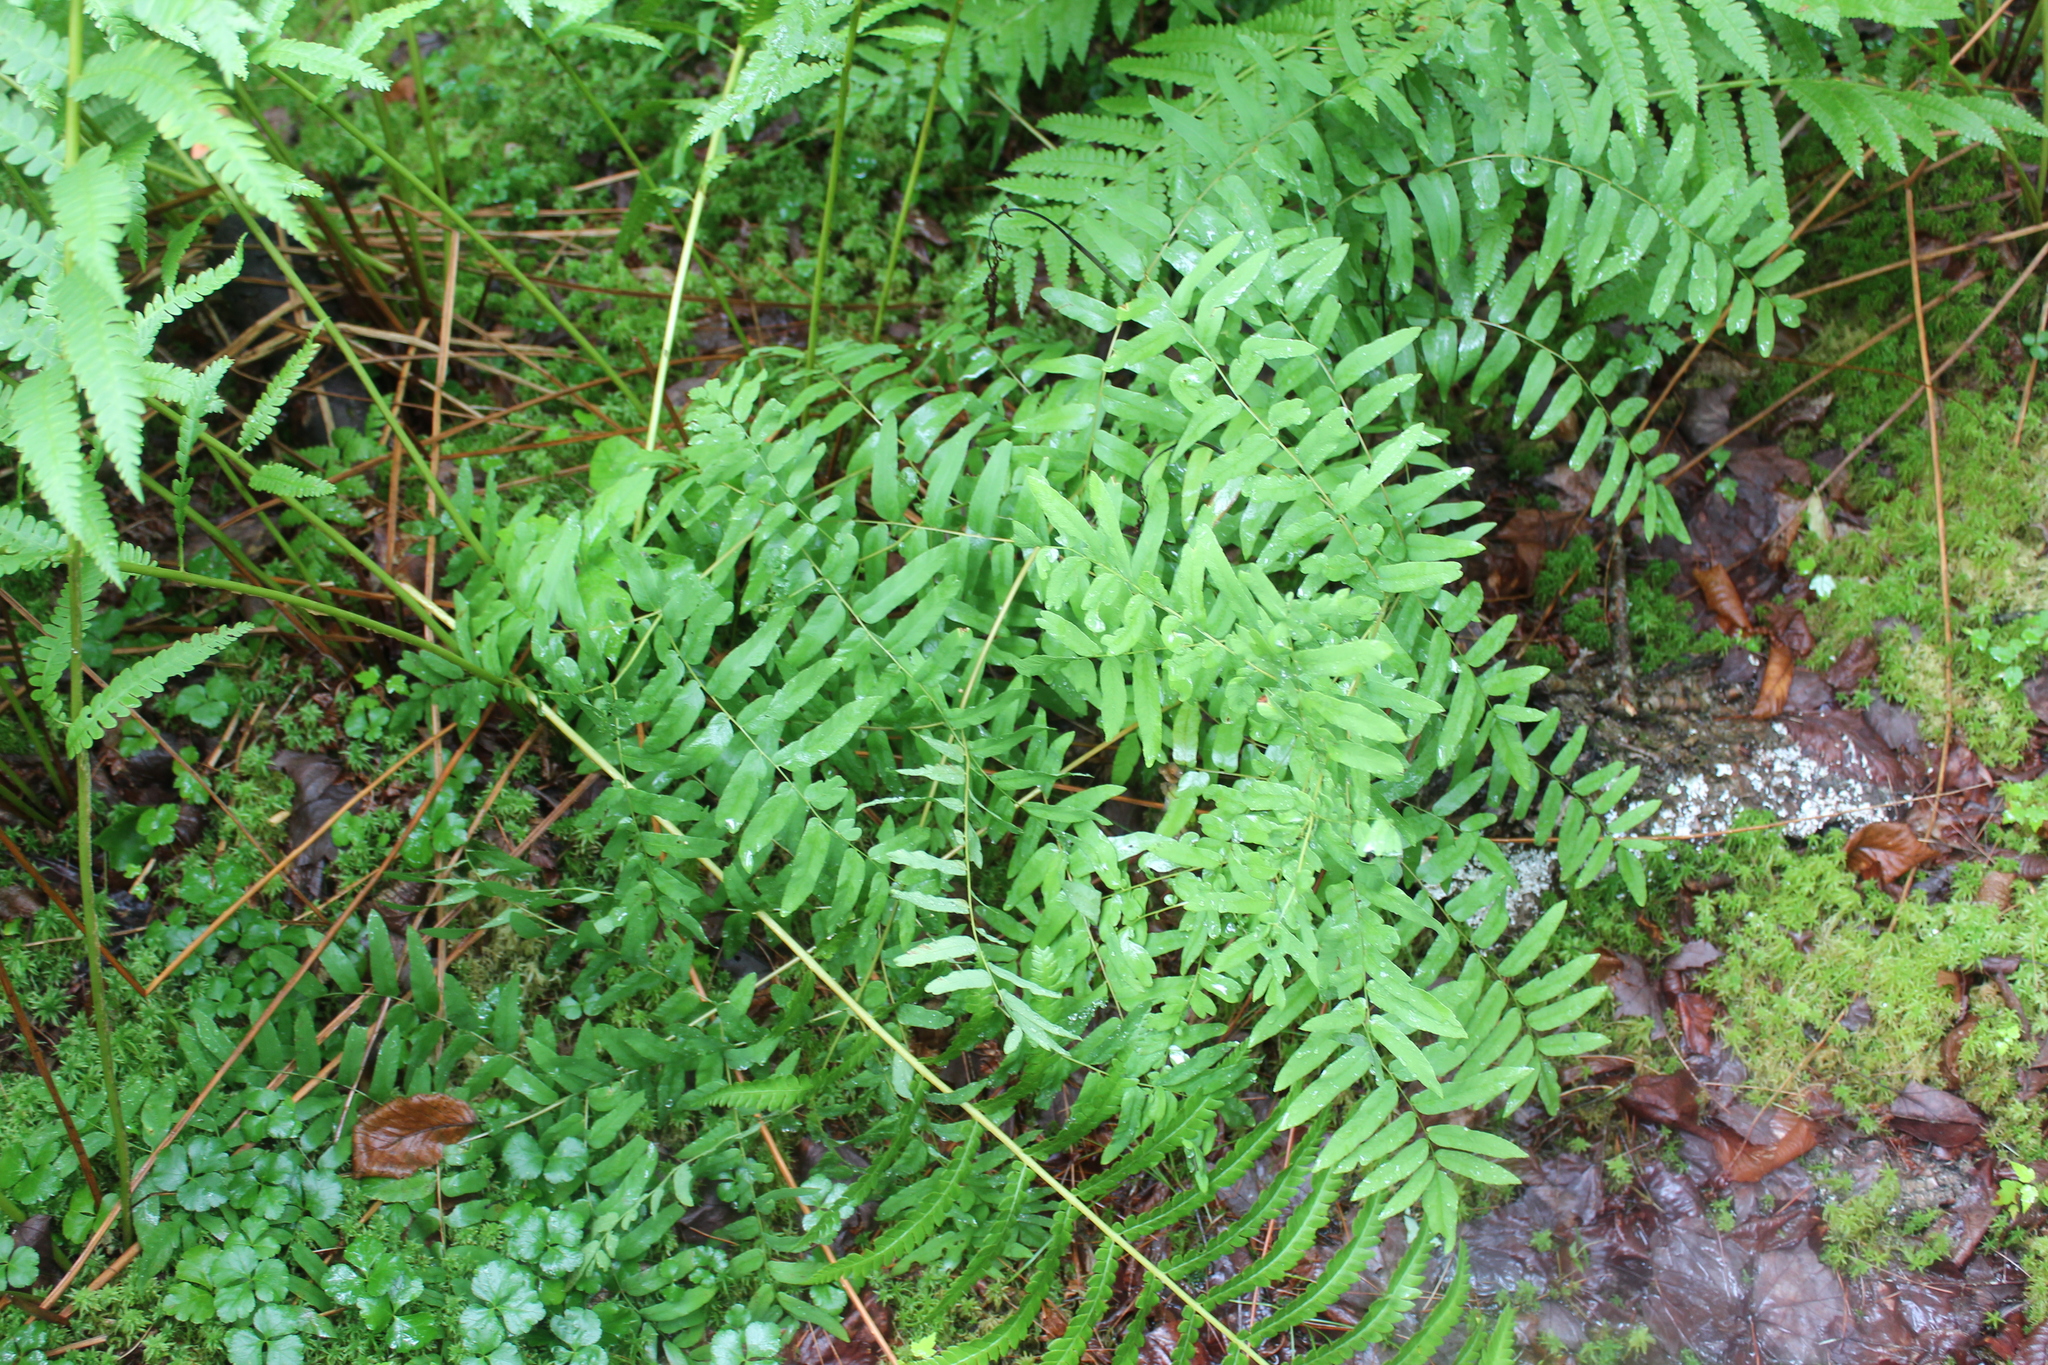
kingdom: Plantae
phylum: Tracheophyta
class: Polypodiopsida
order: Osmundales
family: Osmundaceae
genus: Osmunda
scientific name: Osmunda spectabilis
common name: American royal fern
